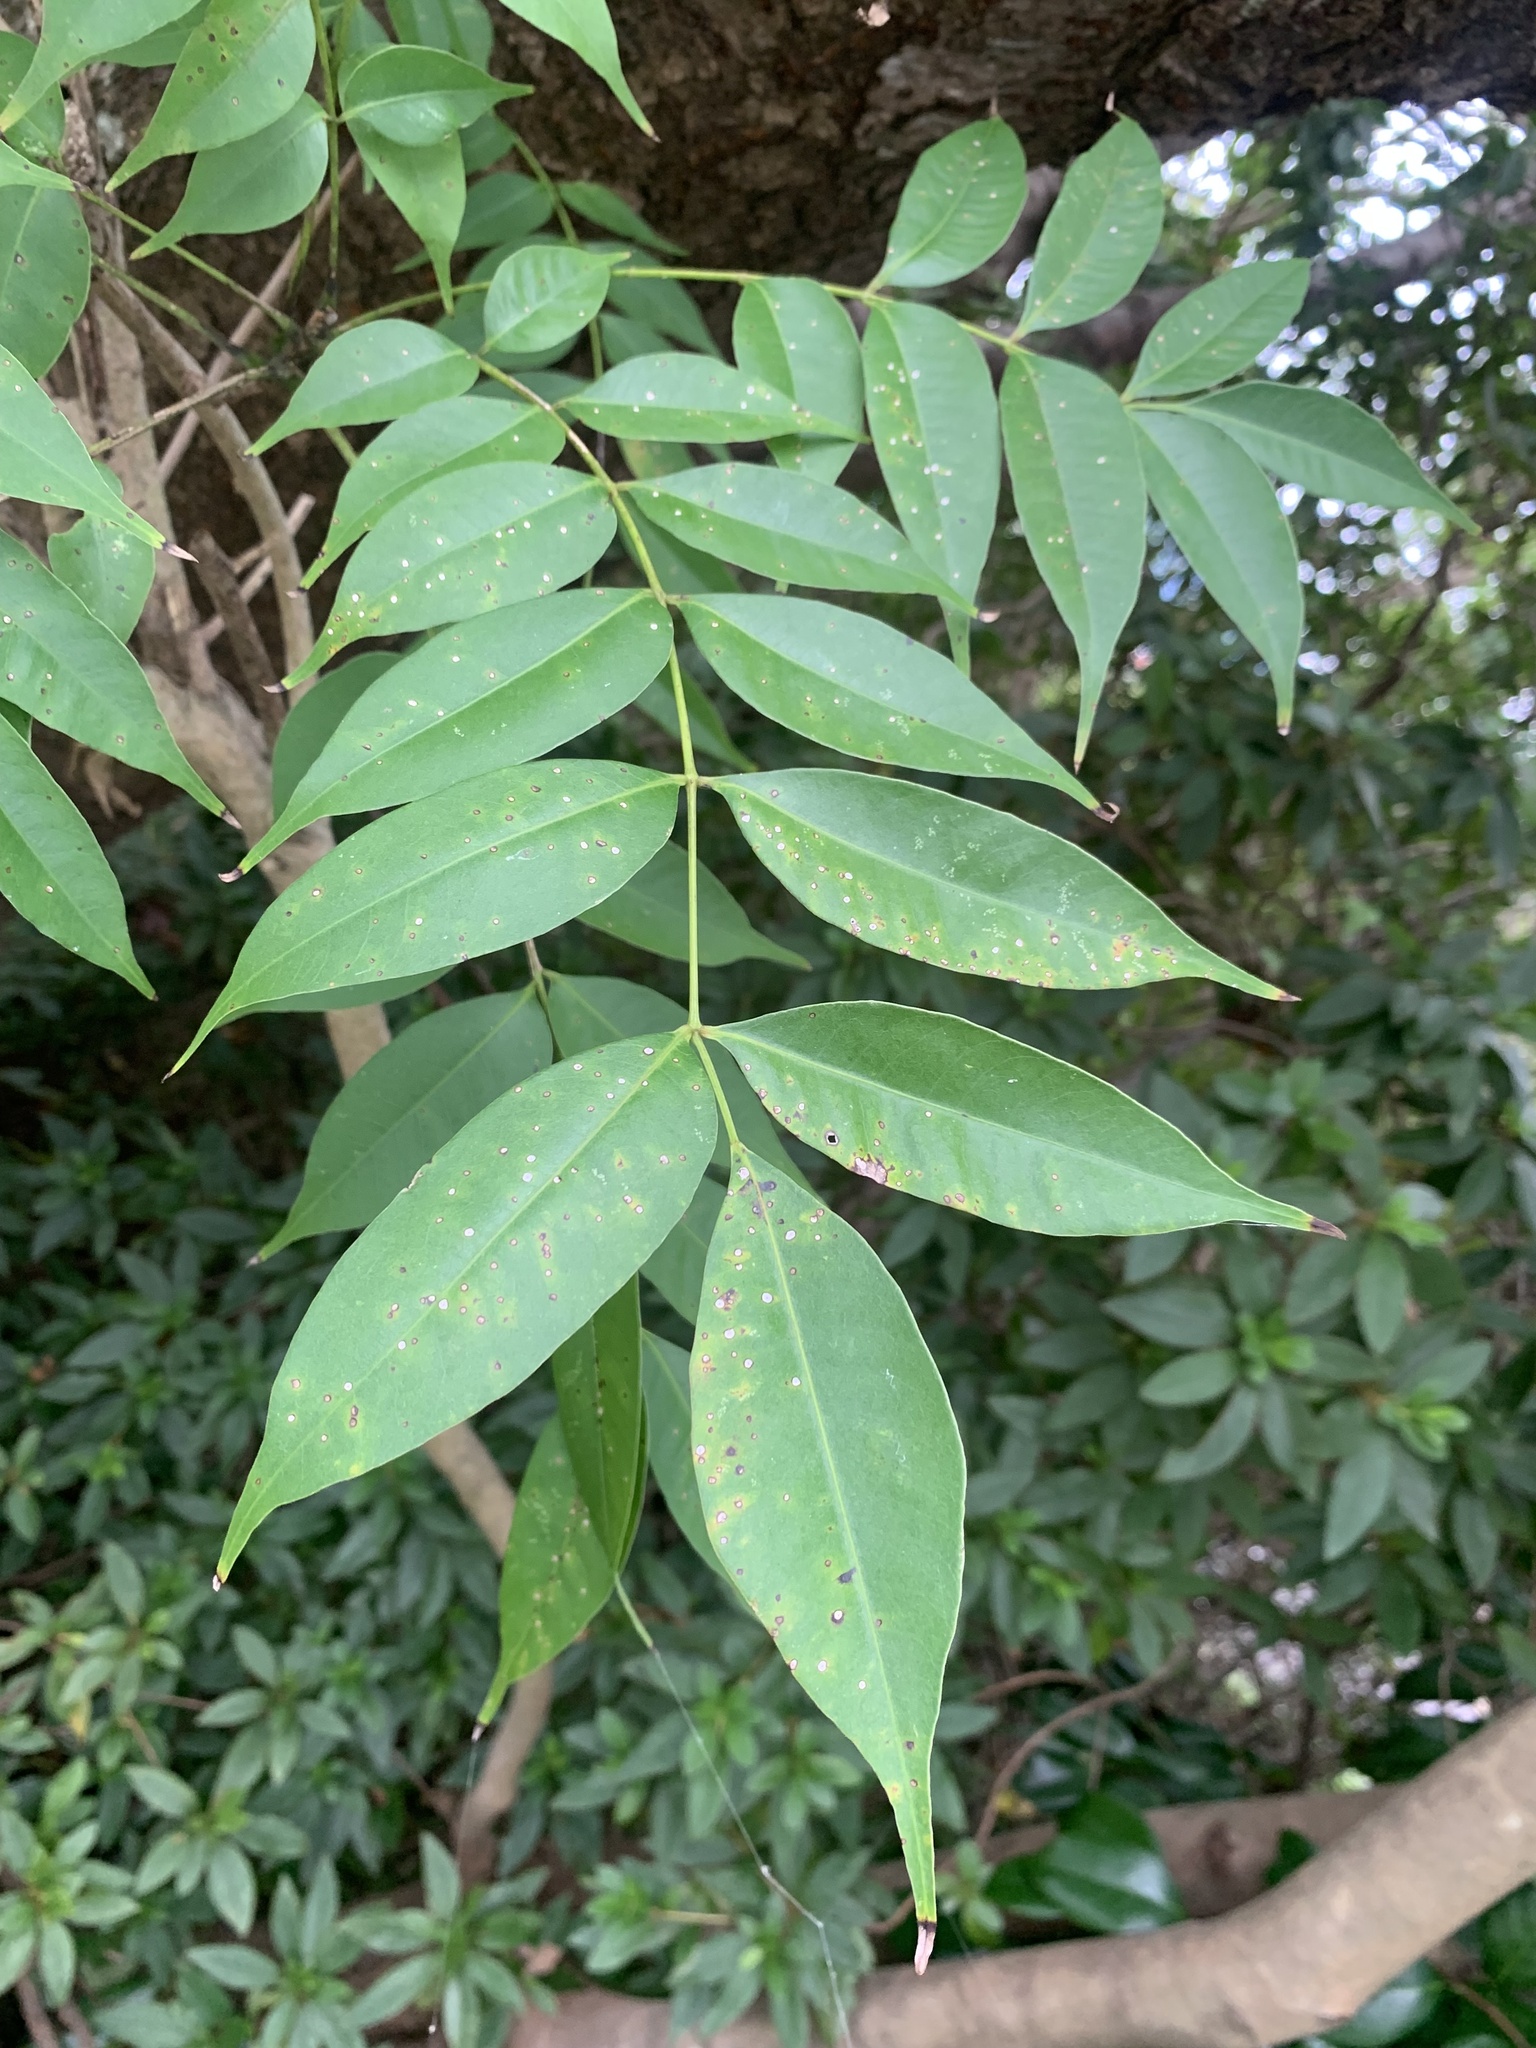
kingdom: Plantae
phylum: Tracheophyta
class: Magnoliopsida
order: Sapindales
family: Anacardiaceae
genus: Toxicodendron
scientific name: Toxicodendron succedaneum
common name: Wax tree
